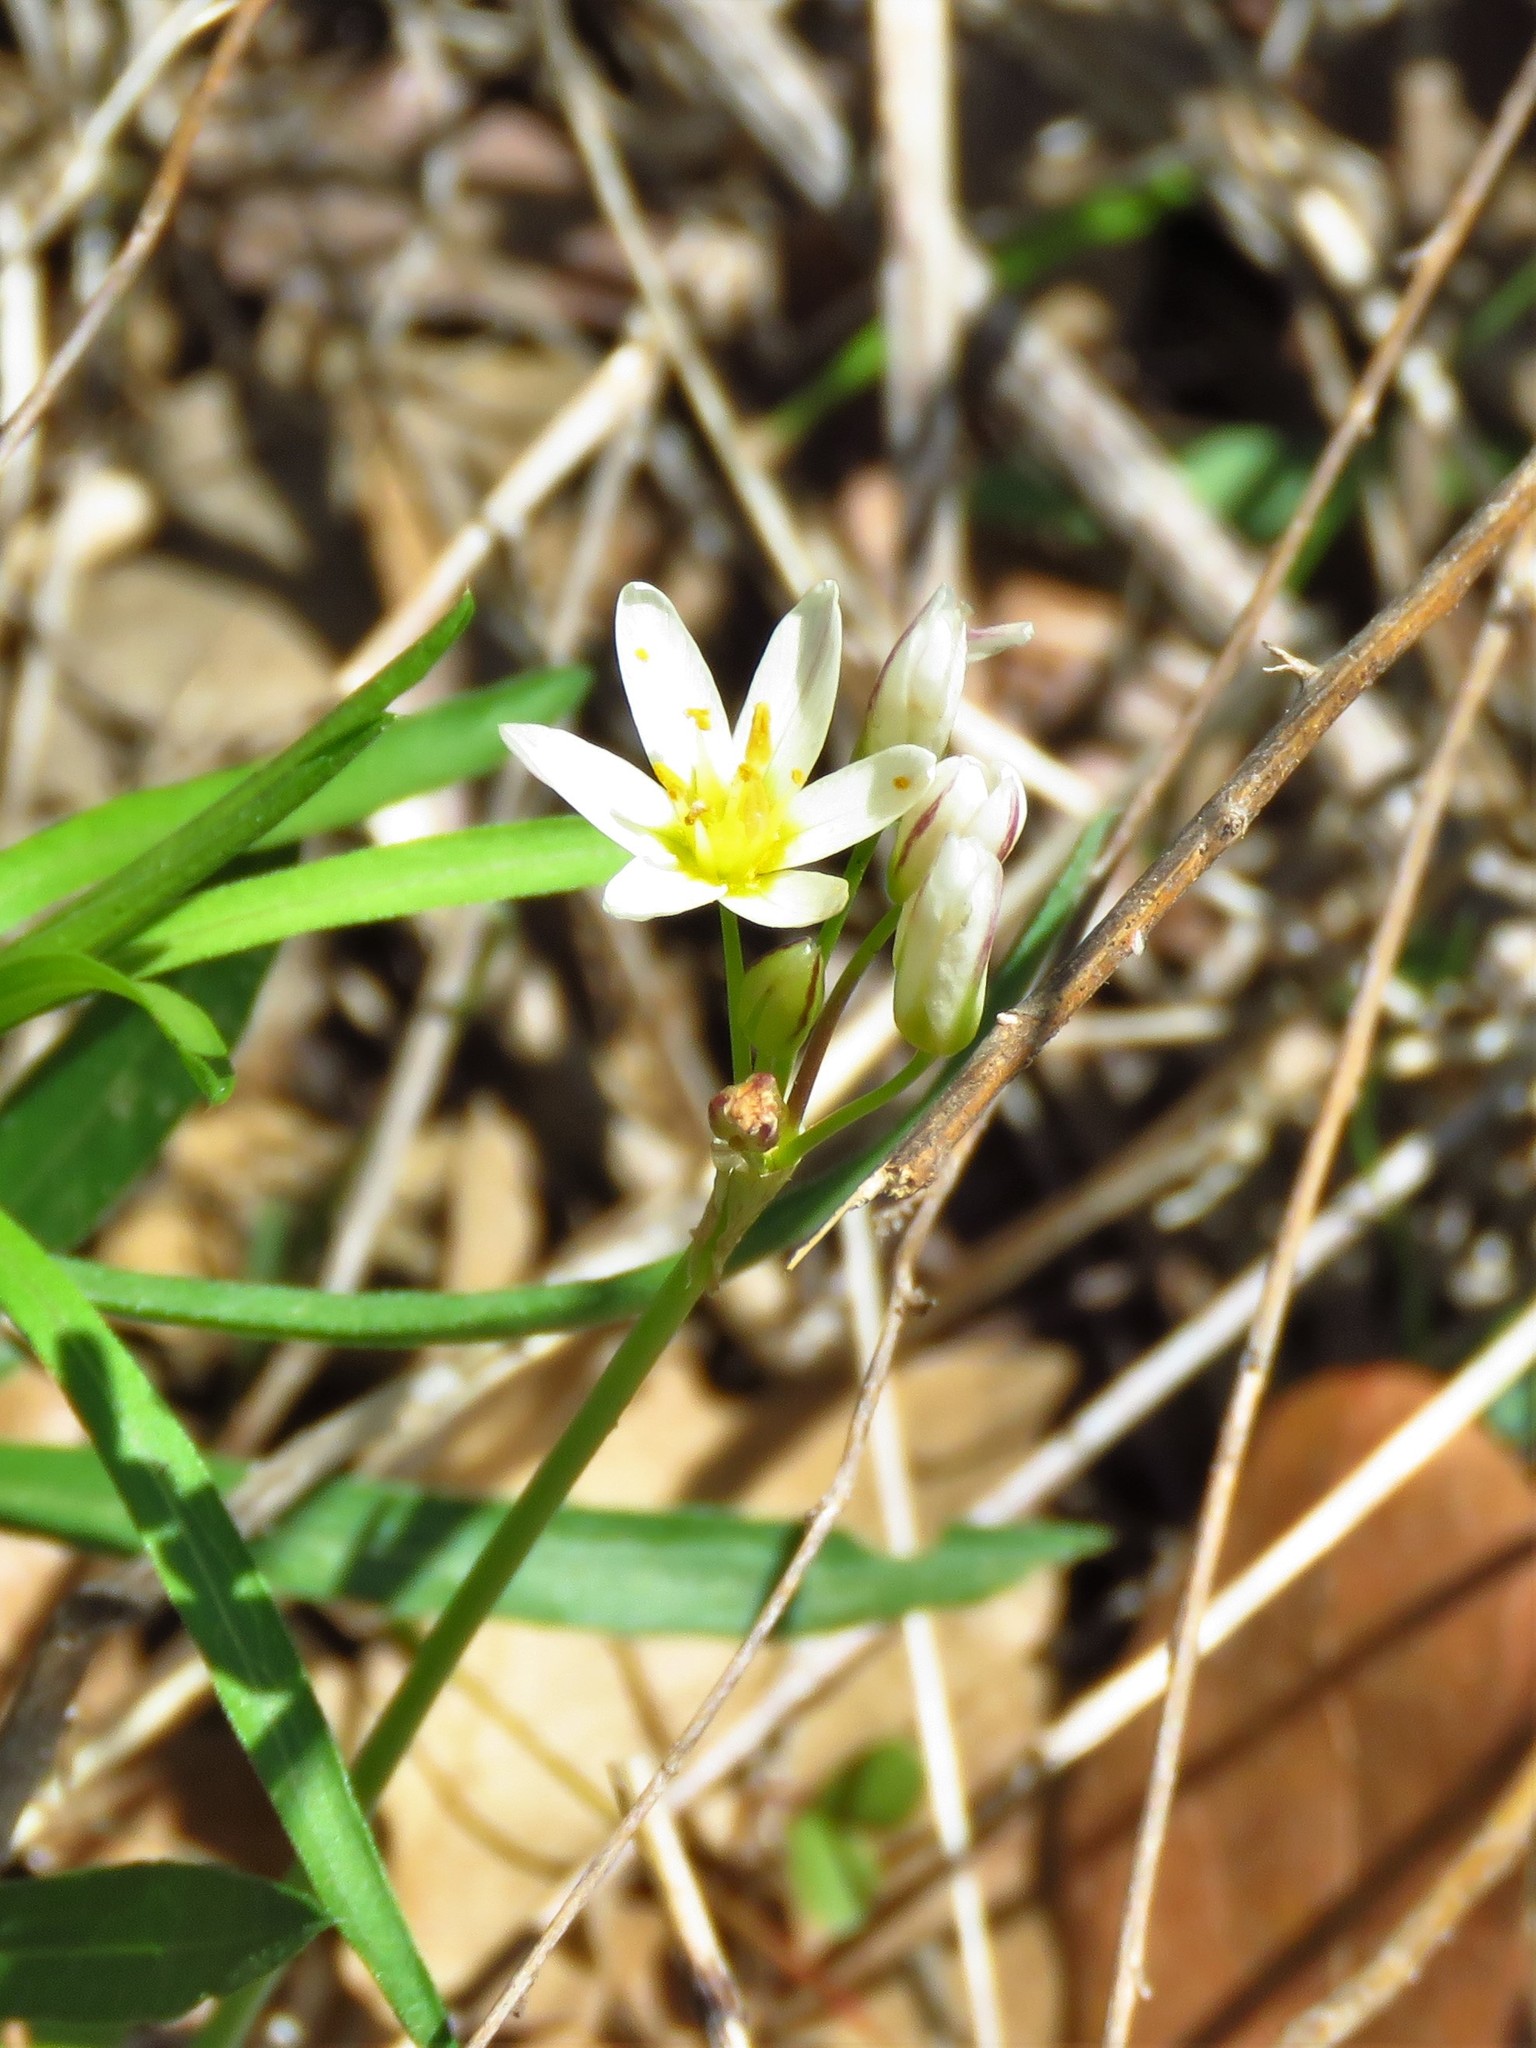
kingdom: Plantae
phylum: Tracheophyta
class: Liliopsida
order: Asparagales
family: Amaryllidaceae
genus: Nothoscordum
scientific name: Nothoscordum bivalve
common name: Crow-poison
